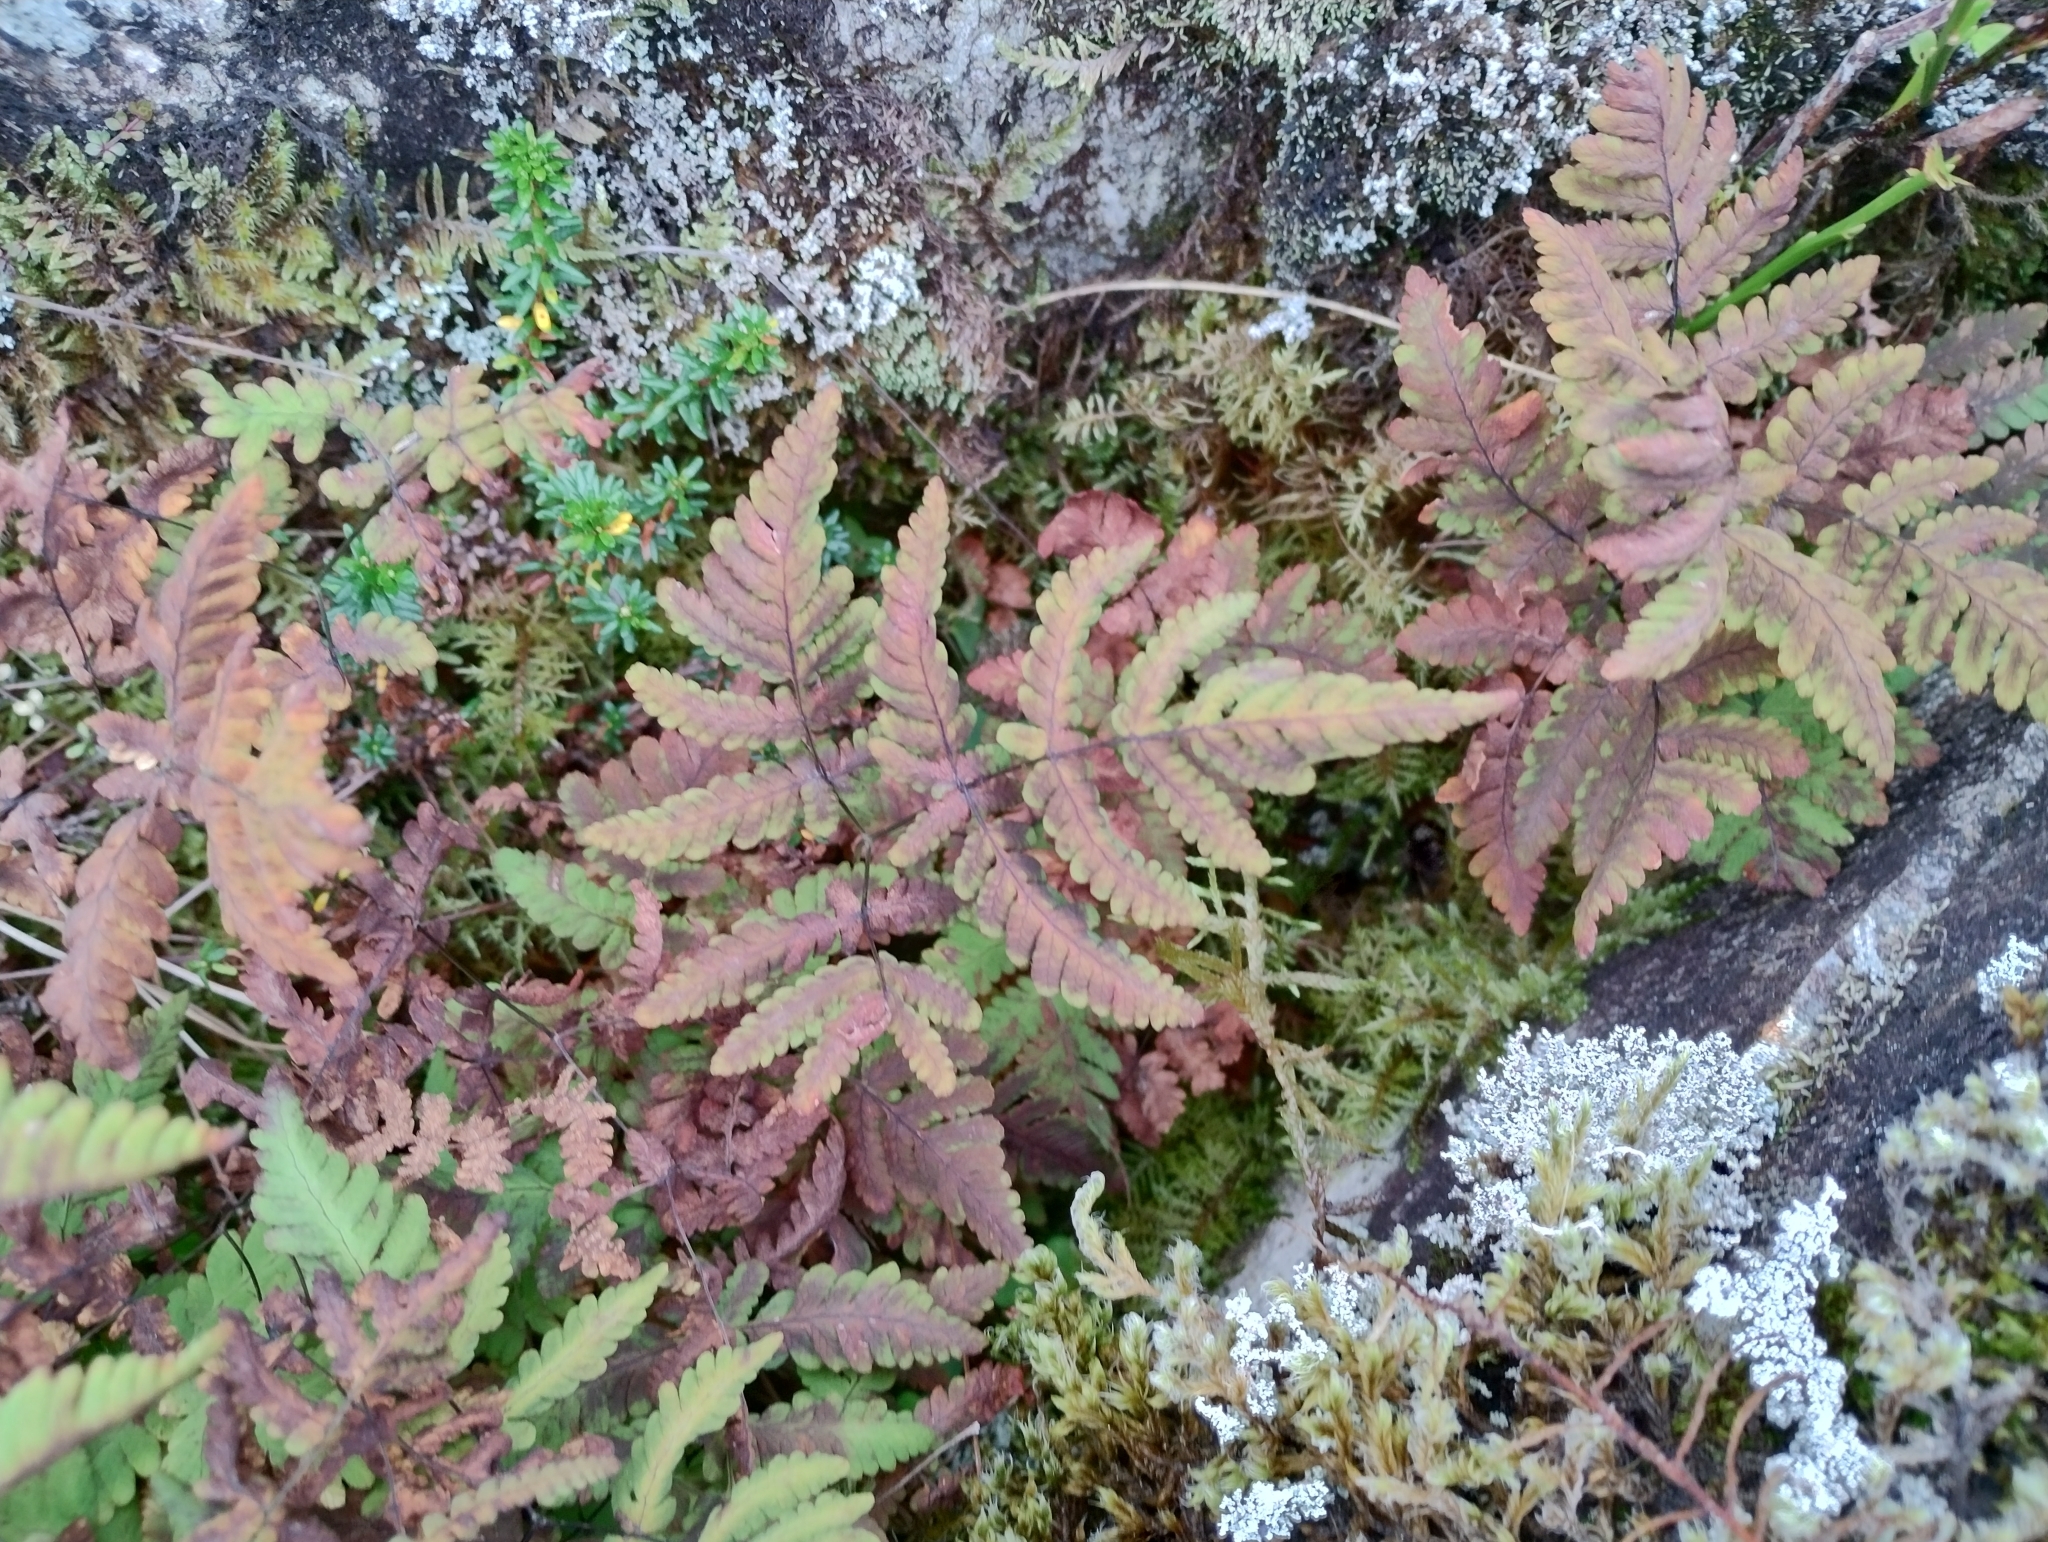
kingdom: Plantae
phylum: Tracheophyta
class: Polypodiopsida
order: Polypodiales
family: Cystopteridaceae
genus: Gymnocarpium
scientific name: Gymnocarpium dryopteris
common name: Oak fern
